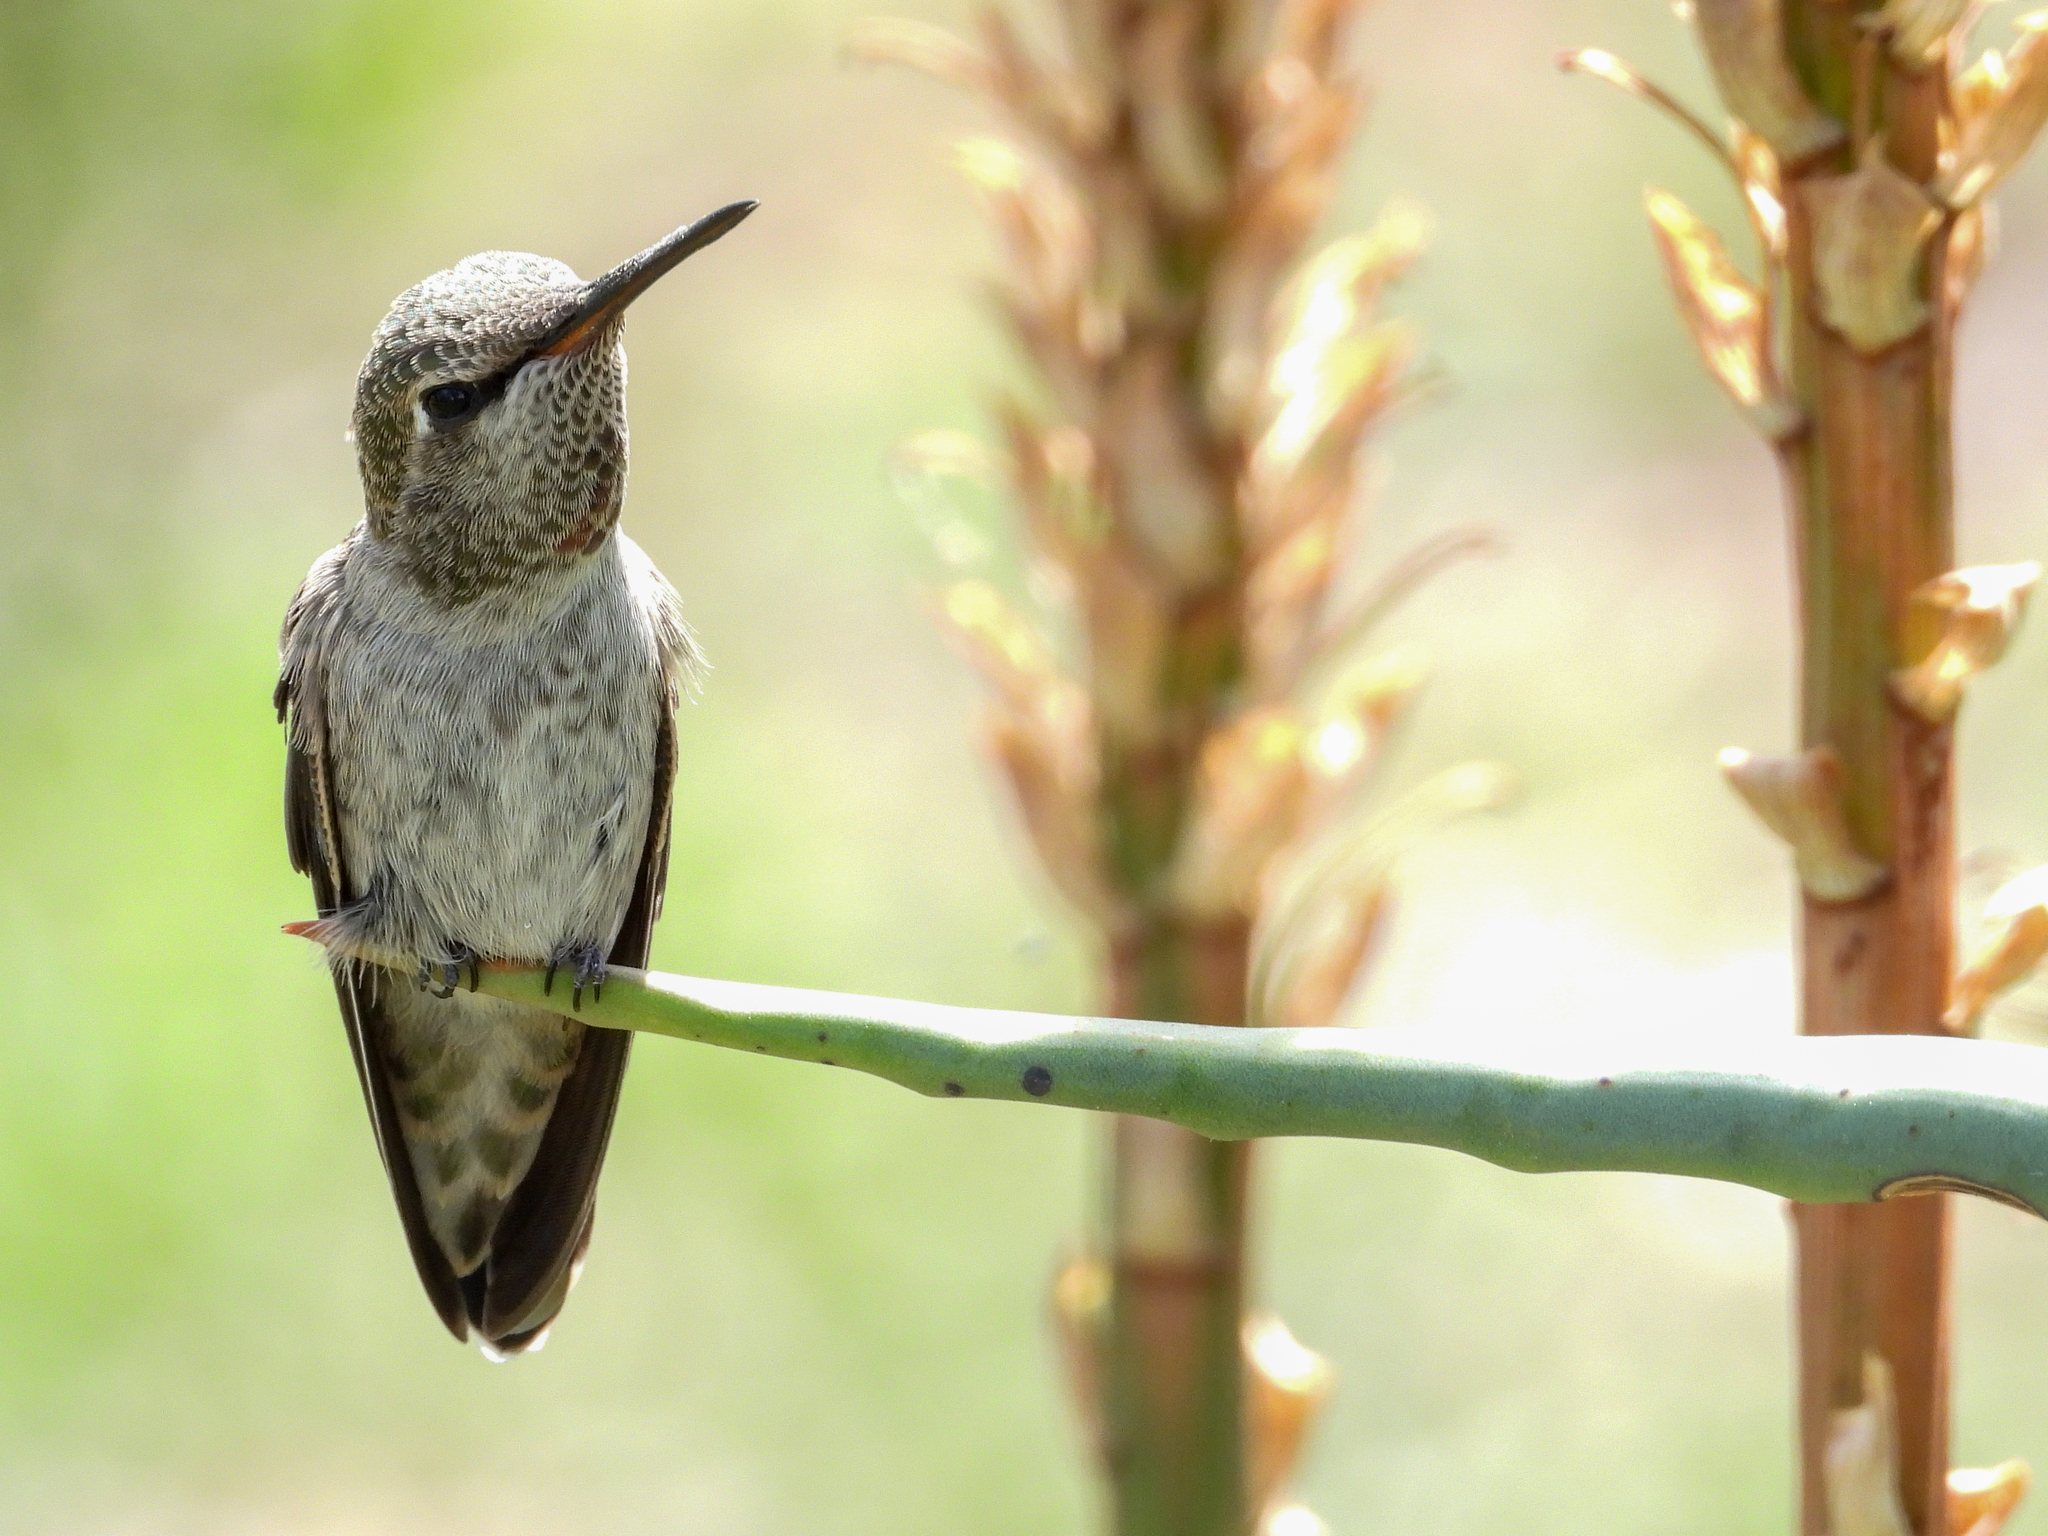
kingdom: Animalia
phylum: Chordata
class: Aves
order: Apodiformes
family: Trochilidae
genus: Calypte
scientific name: Calypte anna
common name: Anna's hummingbird
